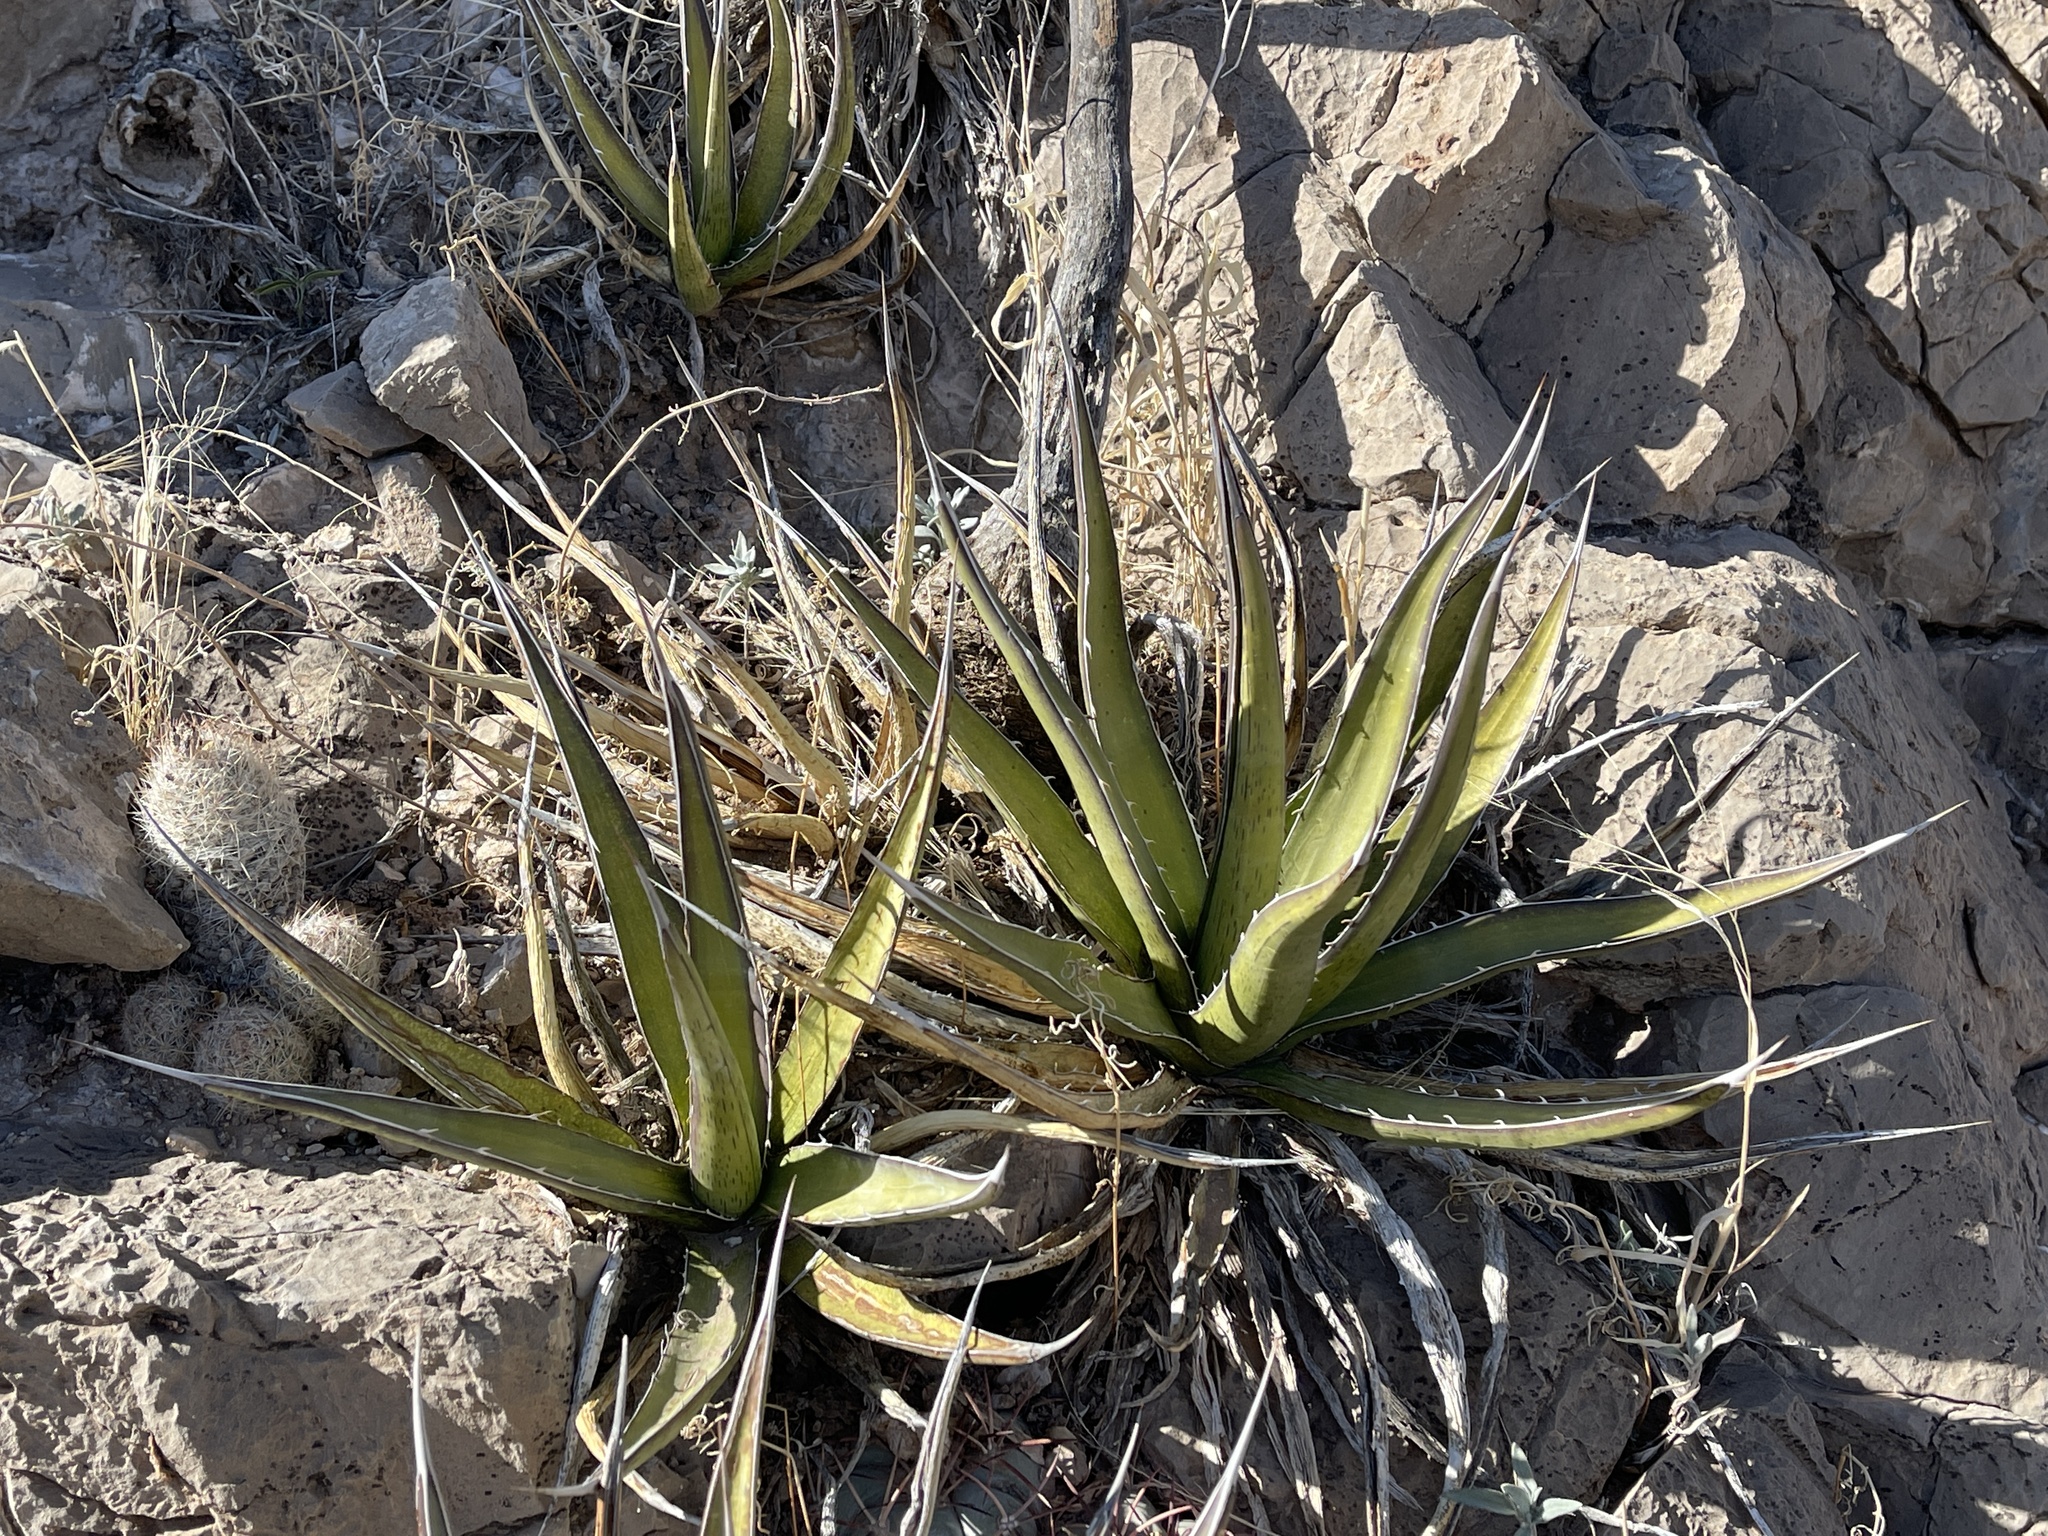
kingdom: Plantae
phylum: Tracheophyta
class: Liliopsida
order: Asparagales
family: Asparagaceae
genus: Agave
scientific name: Agave lechuguilla
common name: Lecheguilla agave
